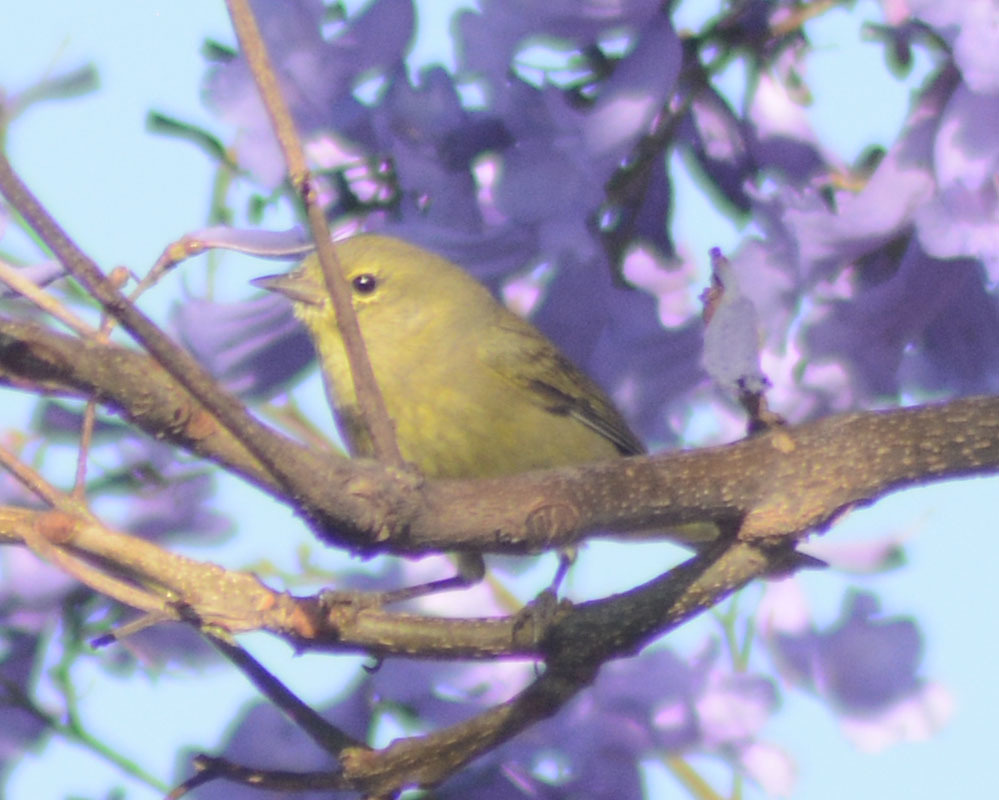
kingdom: Animalia
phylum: Chordata
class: Aves
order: Passeriformes
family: Parulidae
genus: Leiothlypis
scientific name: Leiothlypis celata
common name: Orange-crowned warbler
